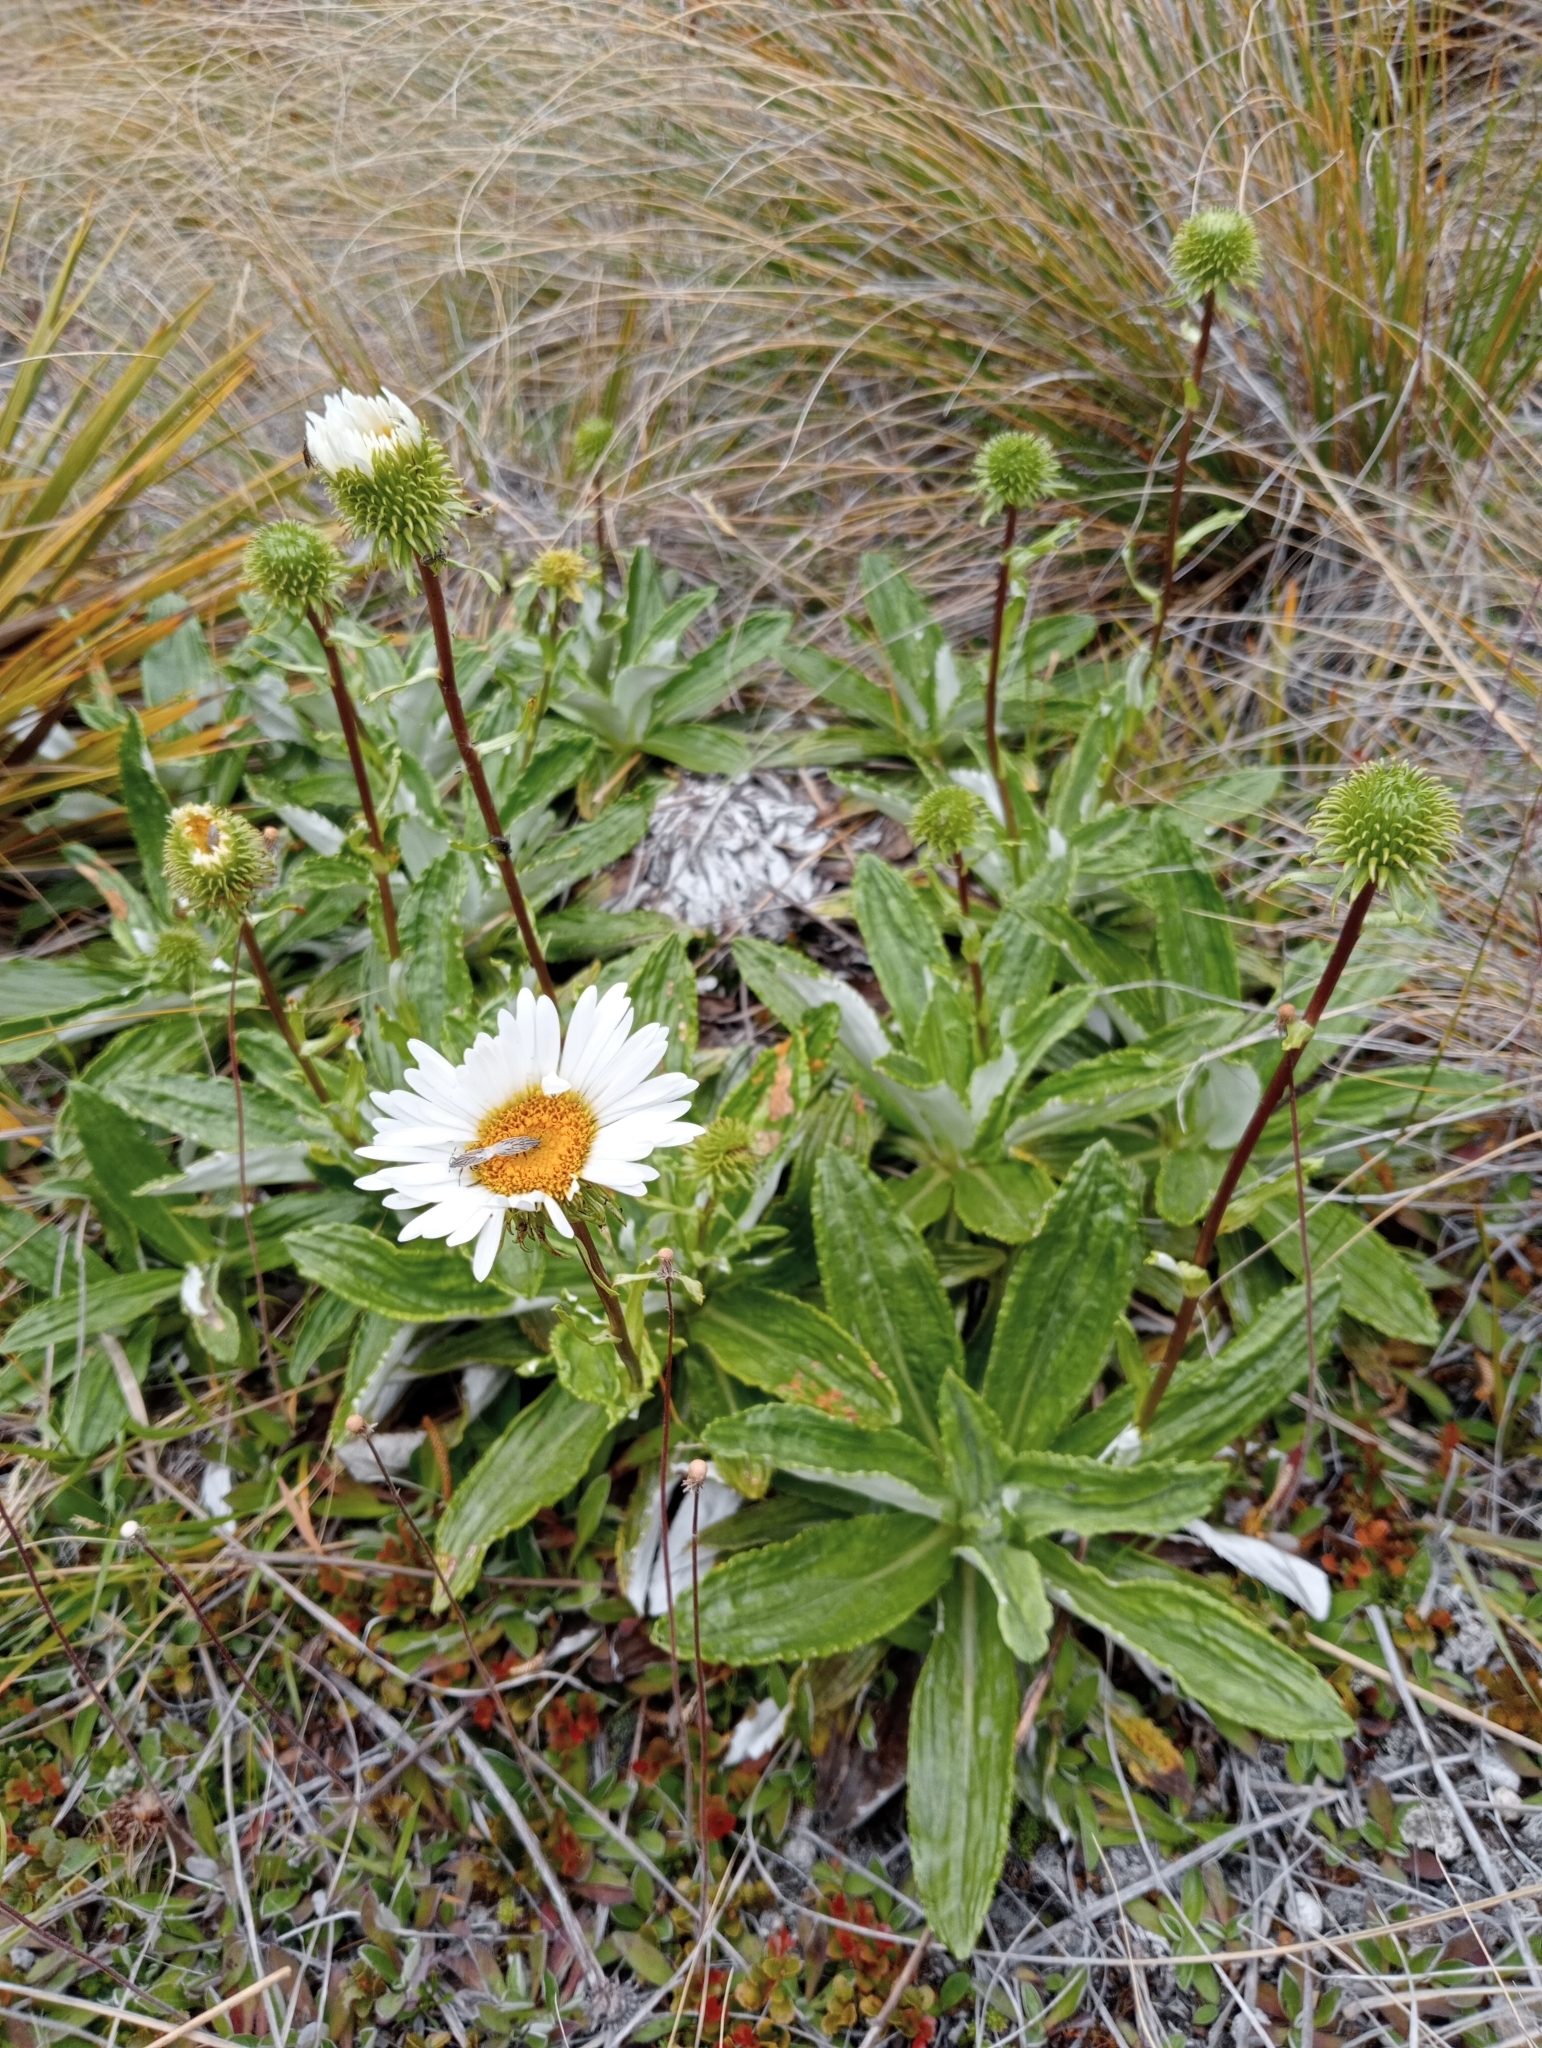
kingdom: Plantae
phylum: Tracheophyta
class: Magnoliopsida
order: Asterales
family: Asteraceae
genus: Celmisia
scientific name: Celmisia densiflora
